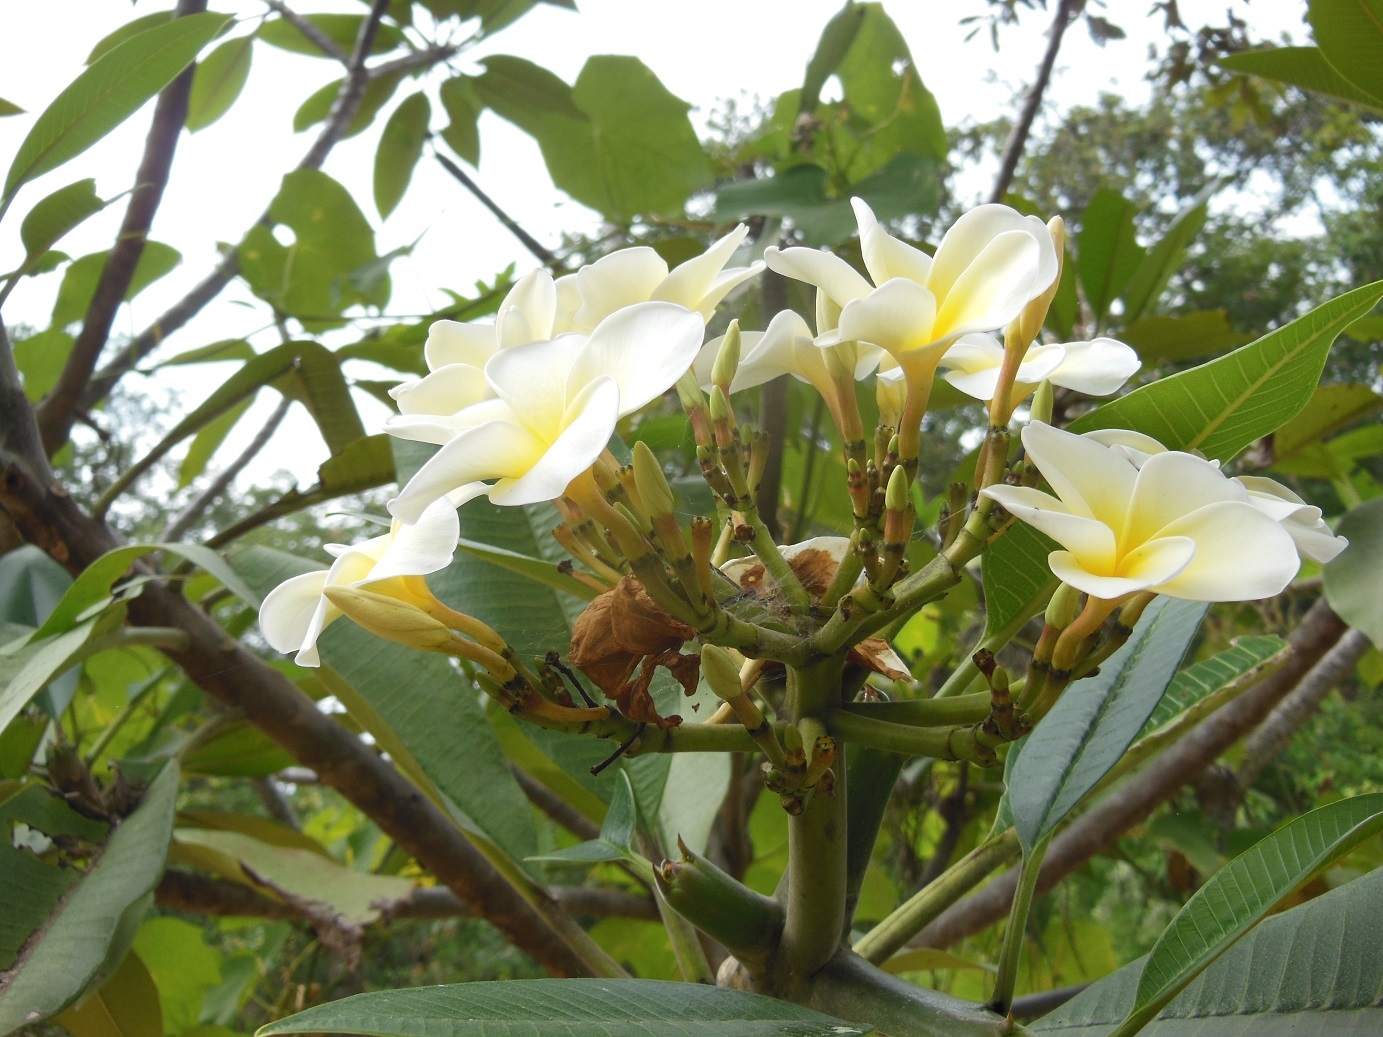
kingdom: Plantae
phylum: Tracheophyta
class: Magnoliopsida
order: Gentianales
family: Apocynaceae
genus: Plumeria
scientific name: Plumeria rubra
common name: Pagoda-tree
